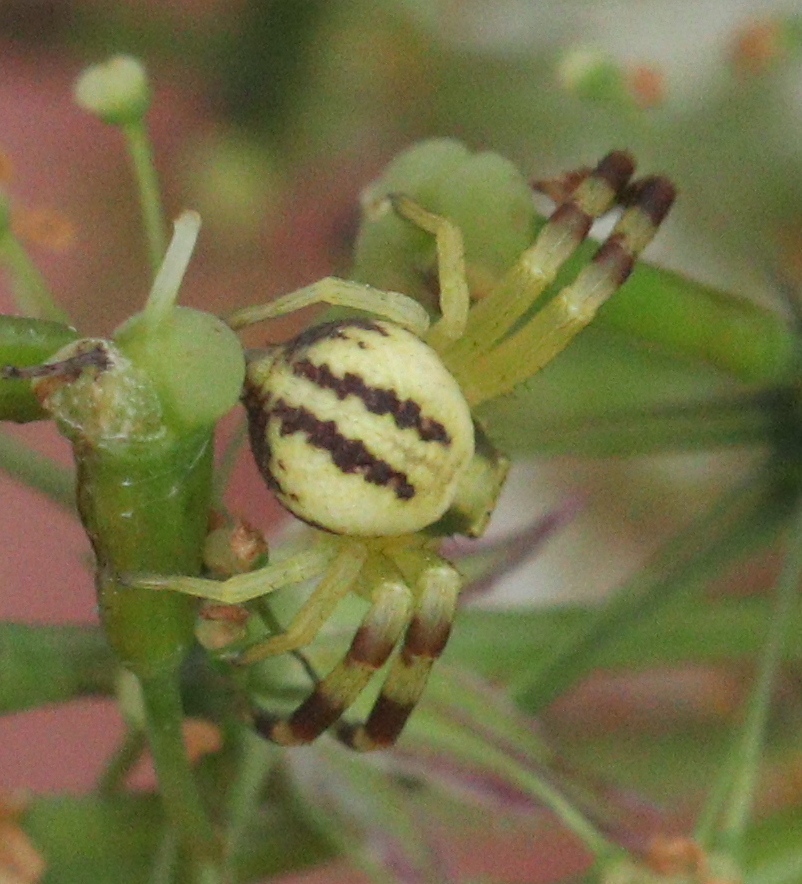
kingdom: Animalia
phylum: Arthropoda
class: Arachnida
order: Araneae
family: Thomisidae
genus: Misumena
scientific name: Misumena vatia
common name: Goldenrod crab spider
